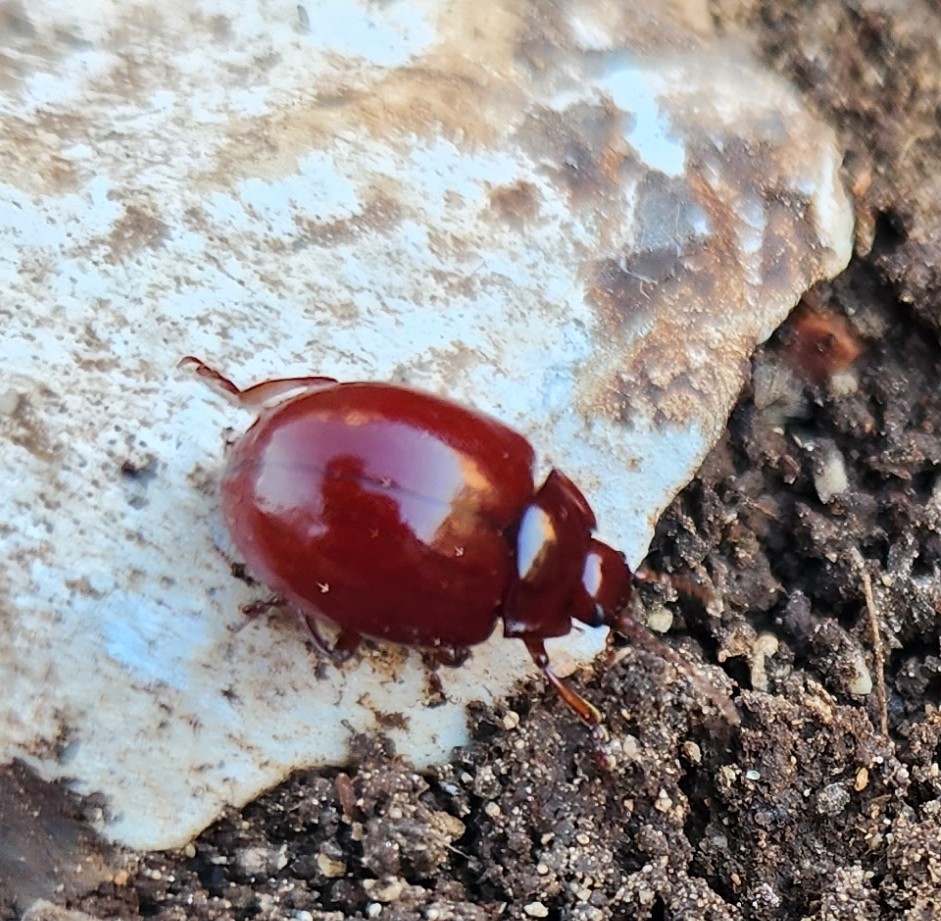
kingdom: Animalia
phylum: Arthropoda
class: Insecta
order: Coleoptera
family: Chrysomelidae
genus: Chrysolina
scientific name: Chrysolina
